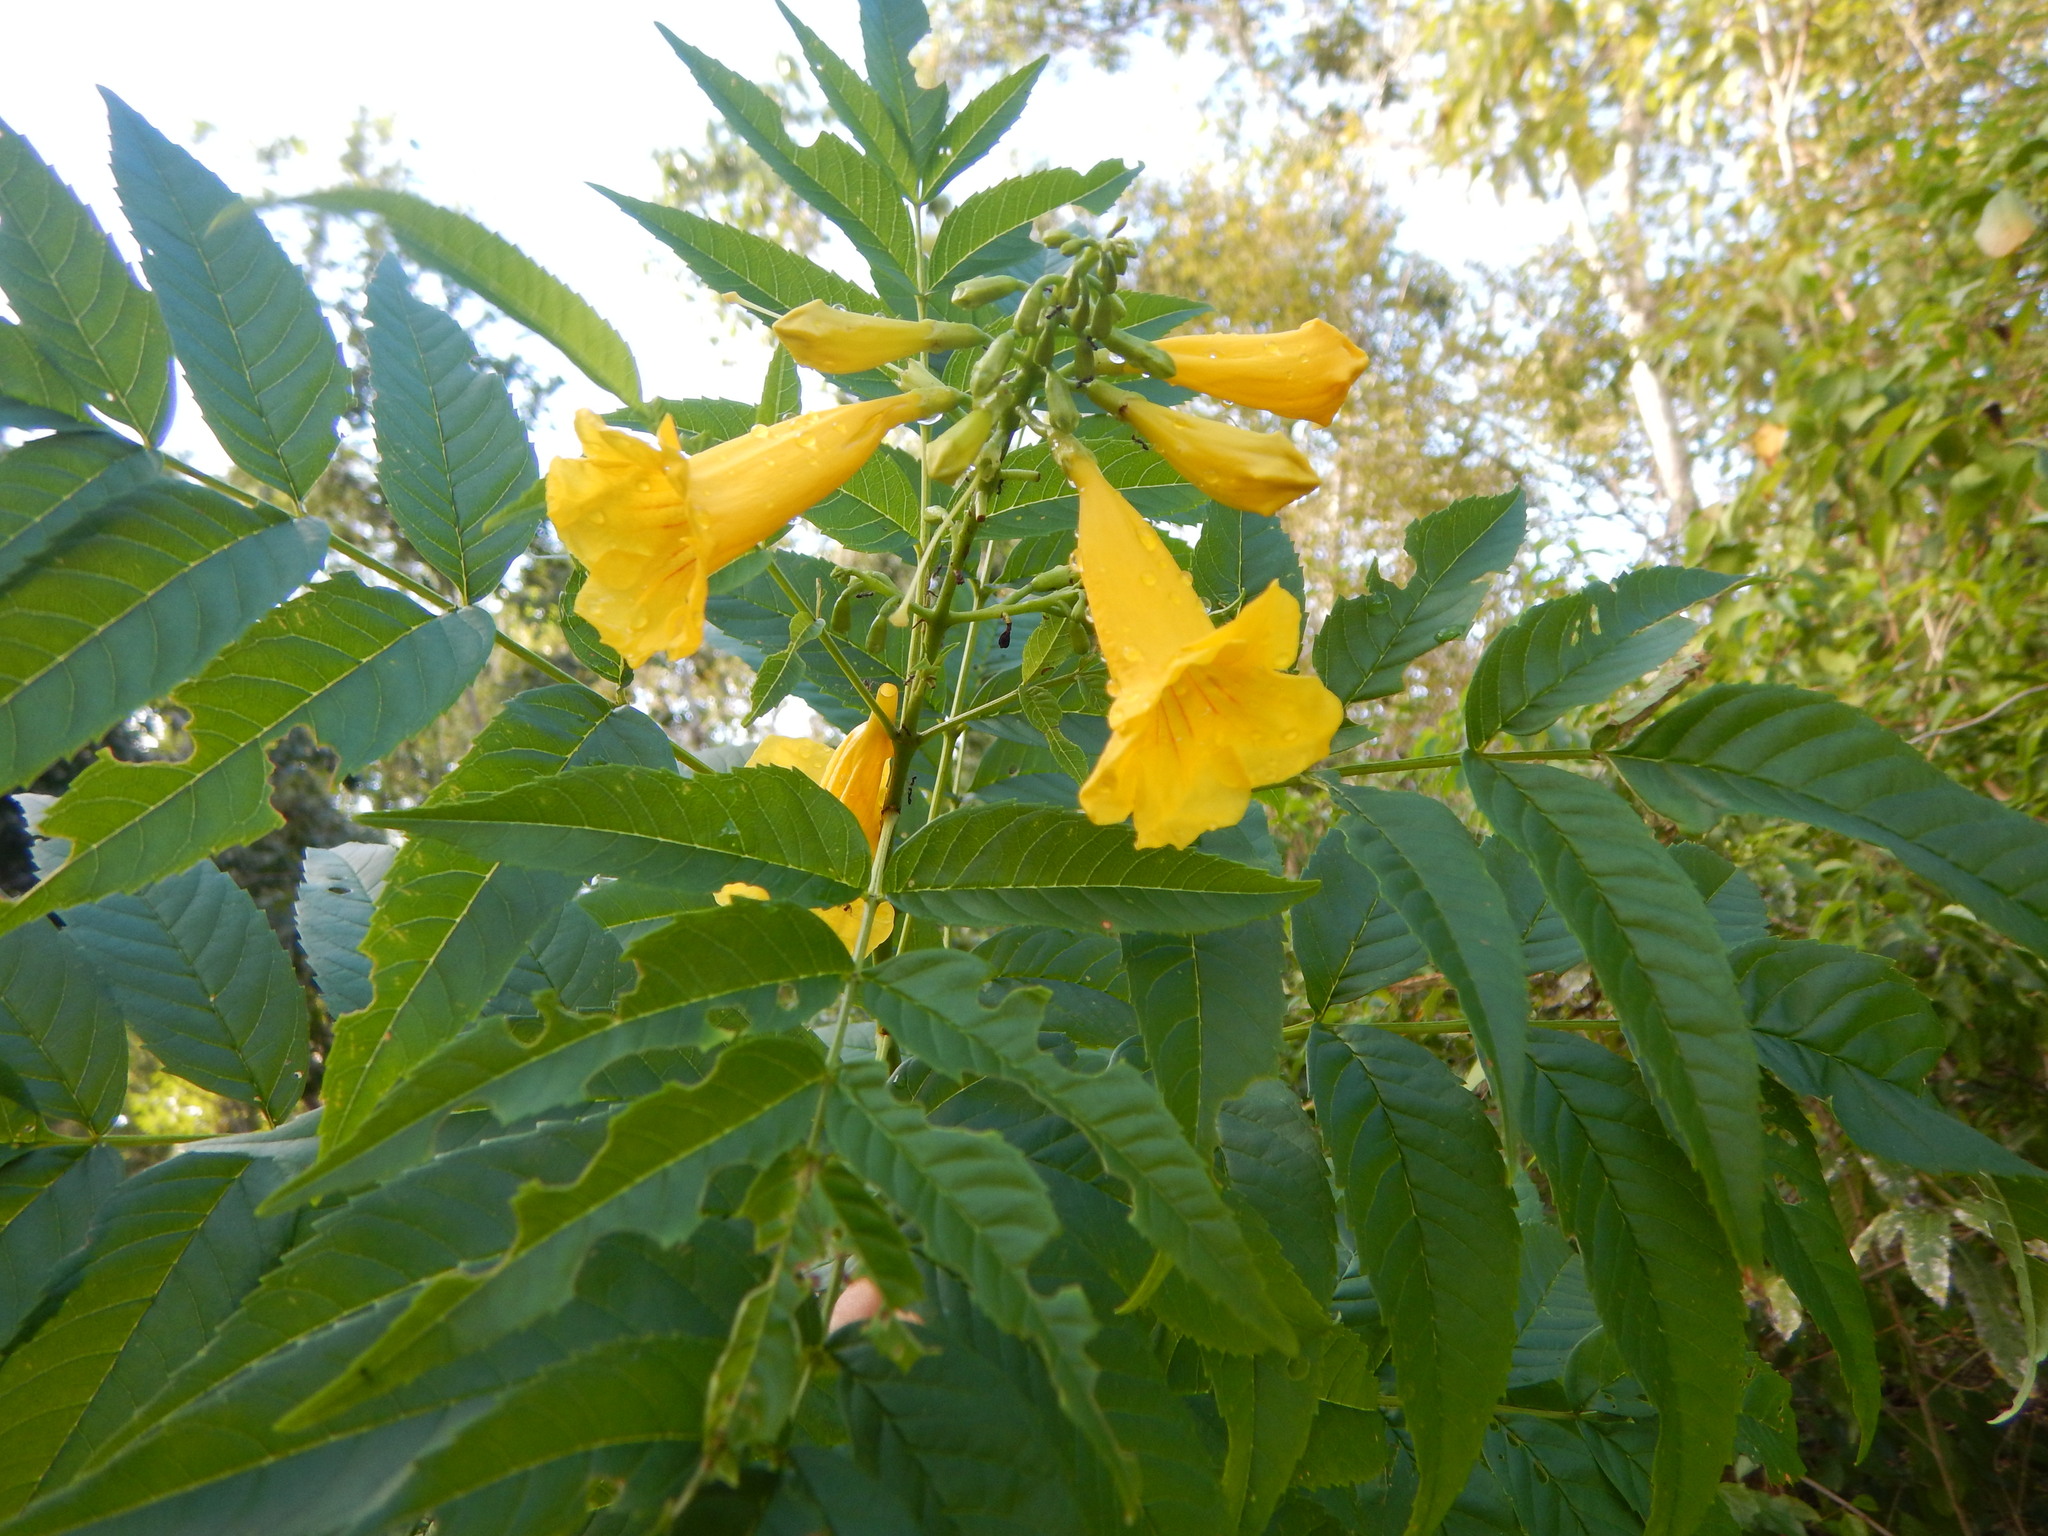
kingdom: Plantae
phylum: Tracheophyta
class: Magnoliopsida
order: Lamiales
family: Bignoniaceae
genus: Tecoma
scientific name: Tecoma stans
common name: Yellow trumpetbush
